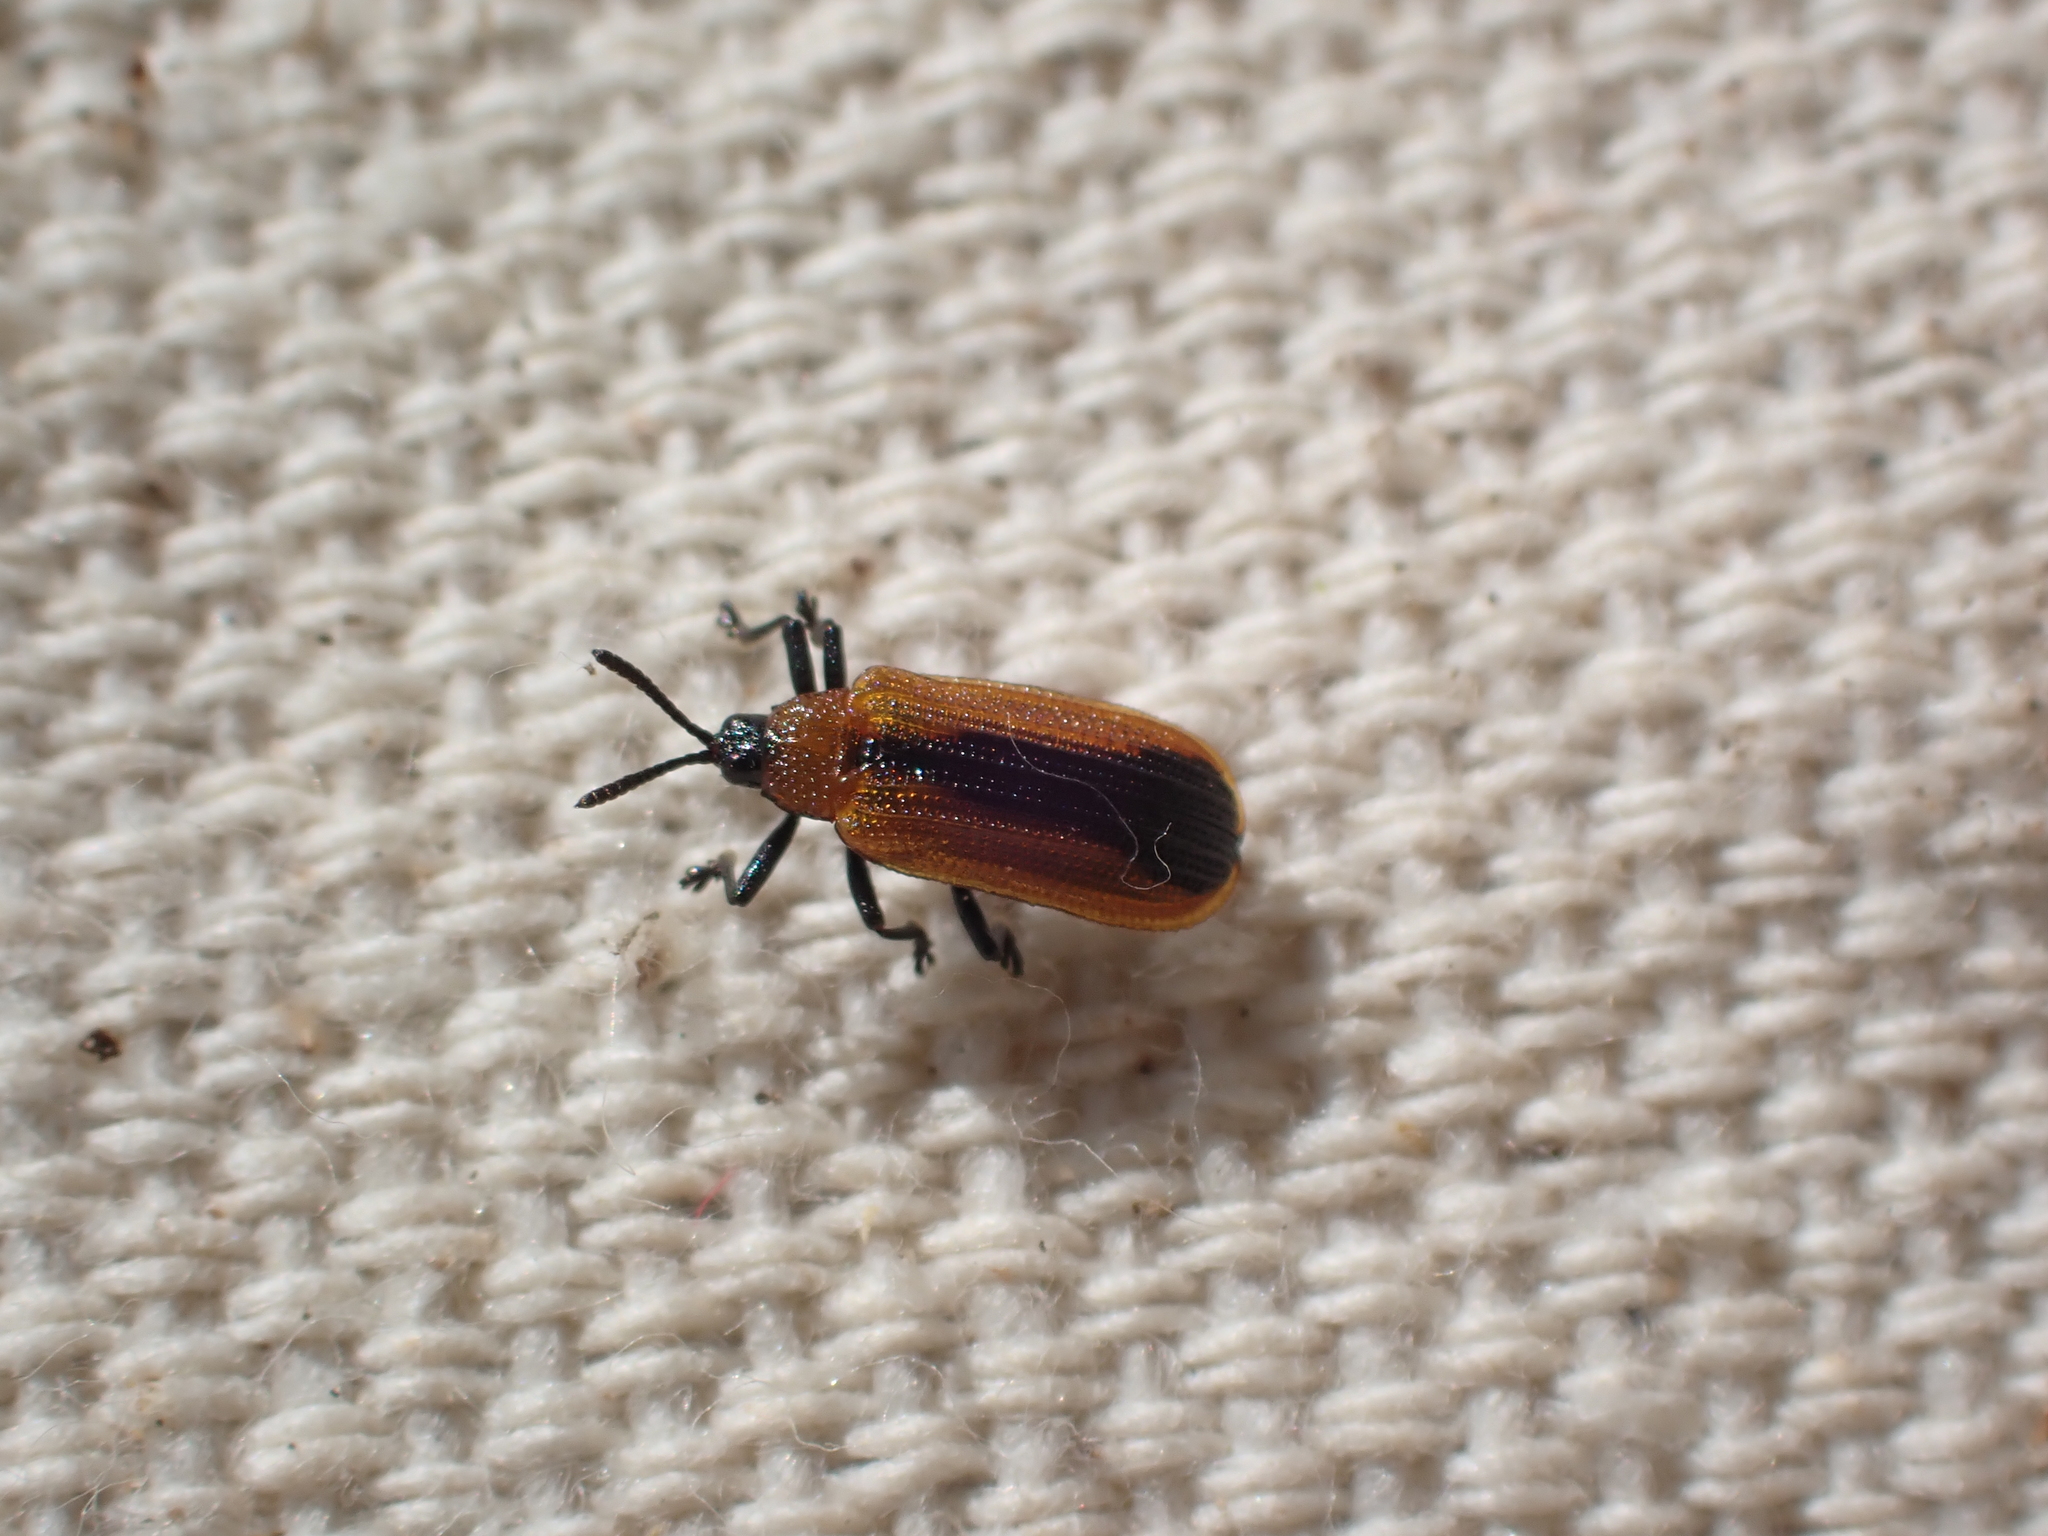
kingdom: Animalia
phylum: Arthropoda
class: Insecta
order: Coleoptera
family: Chrysomelidae
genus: Odontota
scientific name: Odontota dorsalis
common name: Locust leaf-miner beetle
